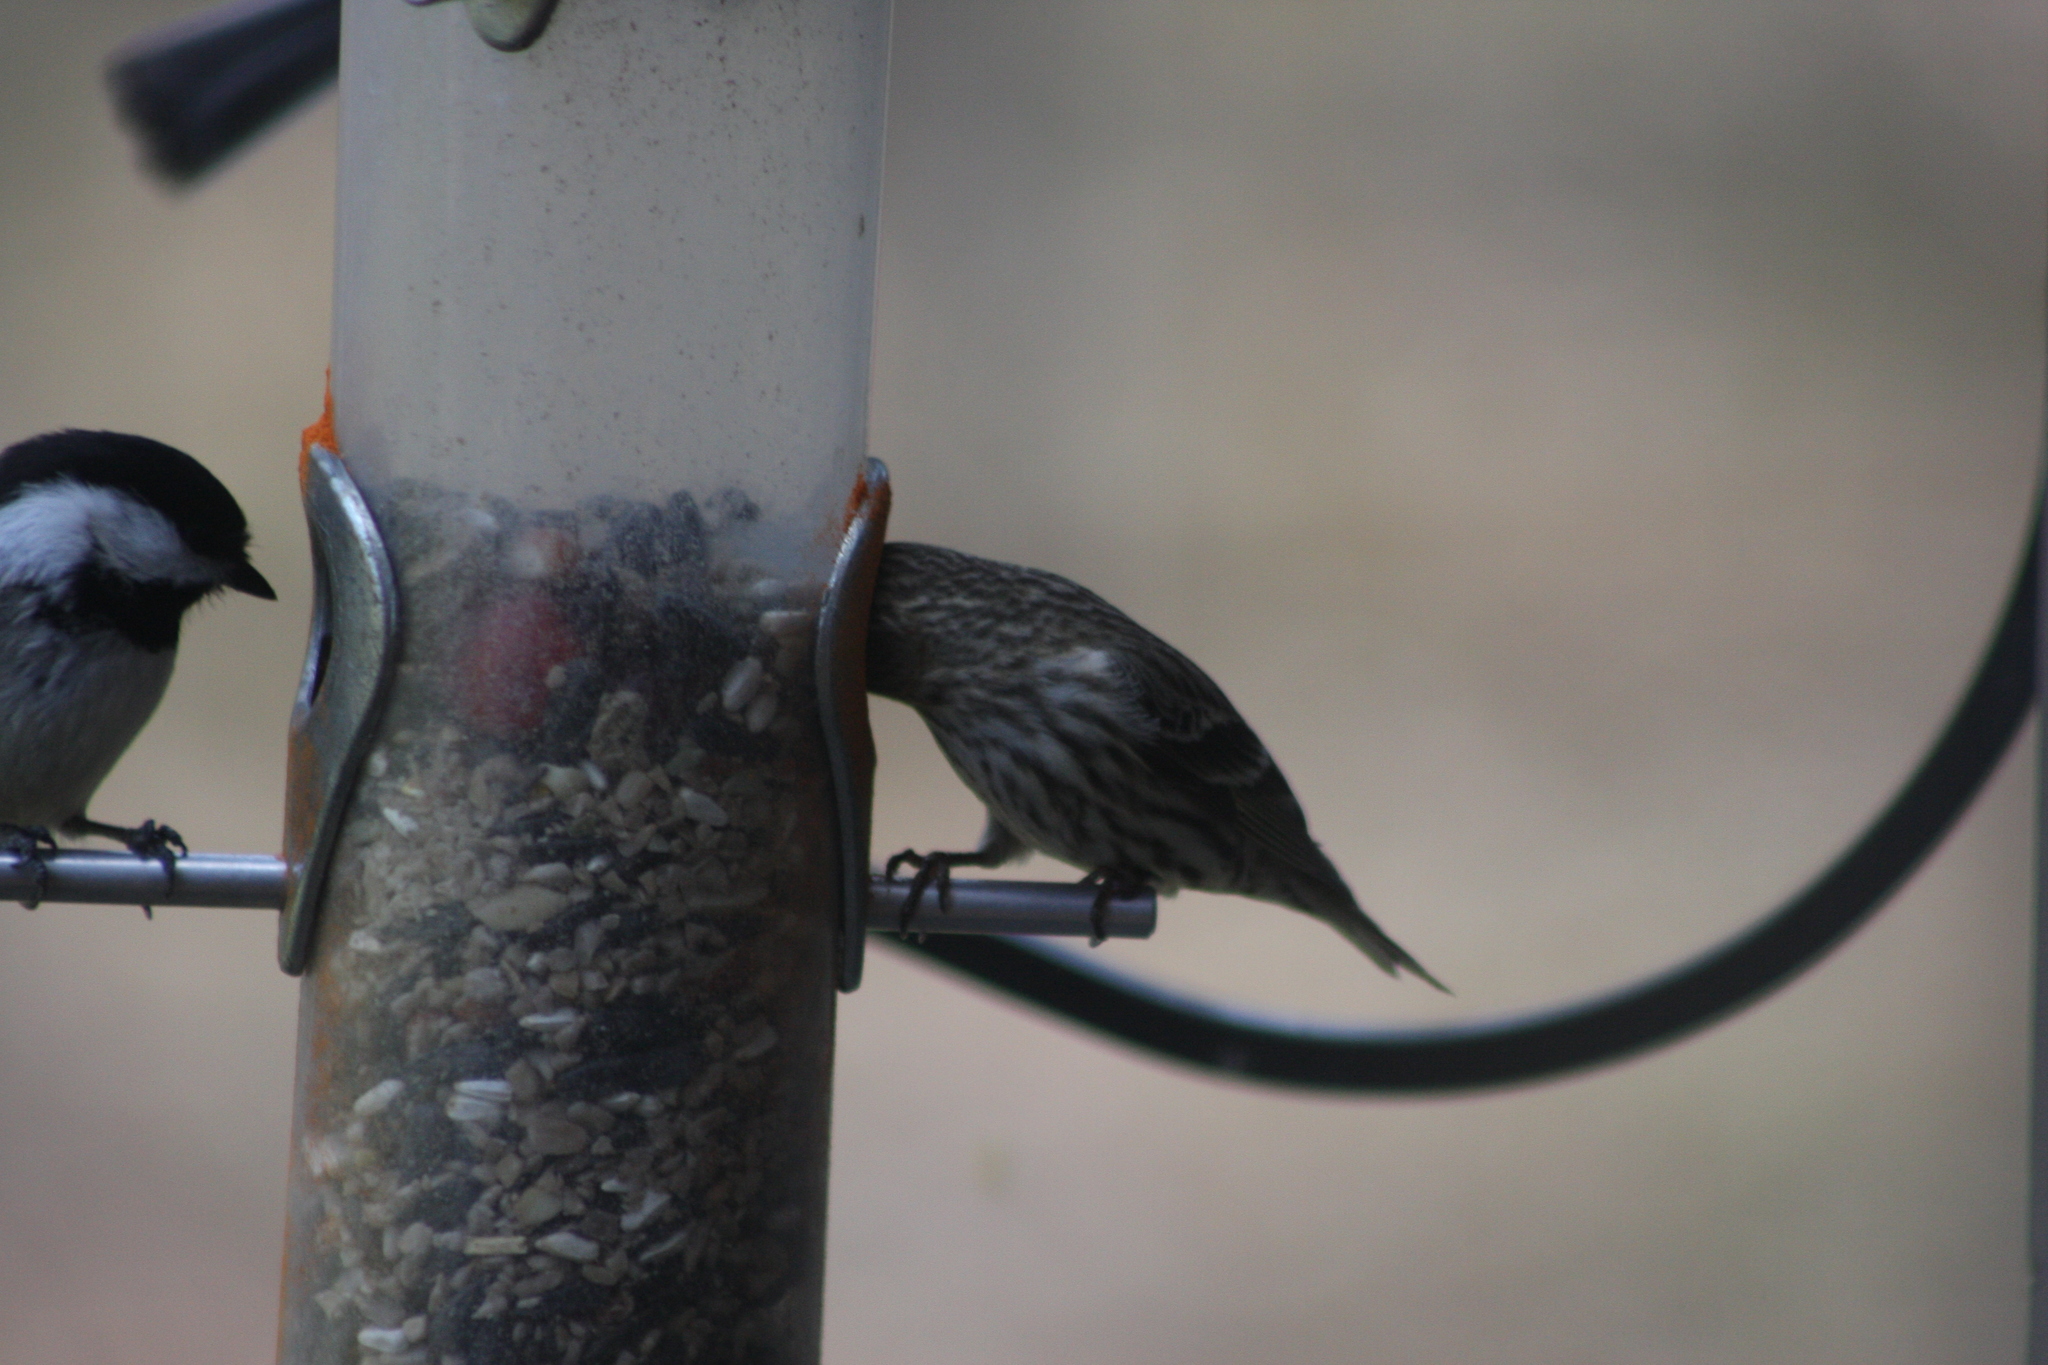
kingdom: Animalia
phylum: Chordata
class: Aves
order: Passeriformes
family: Fringillidae
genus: Spinus
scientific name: Spinus pinus
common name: Pine siskin
